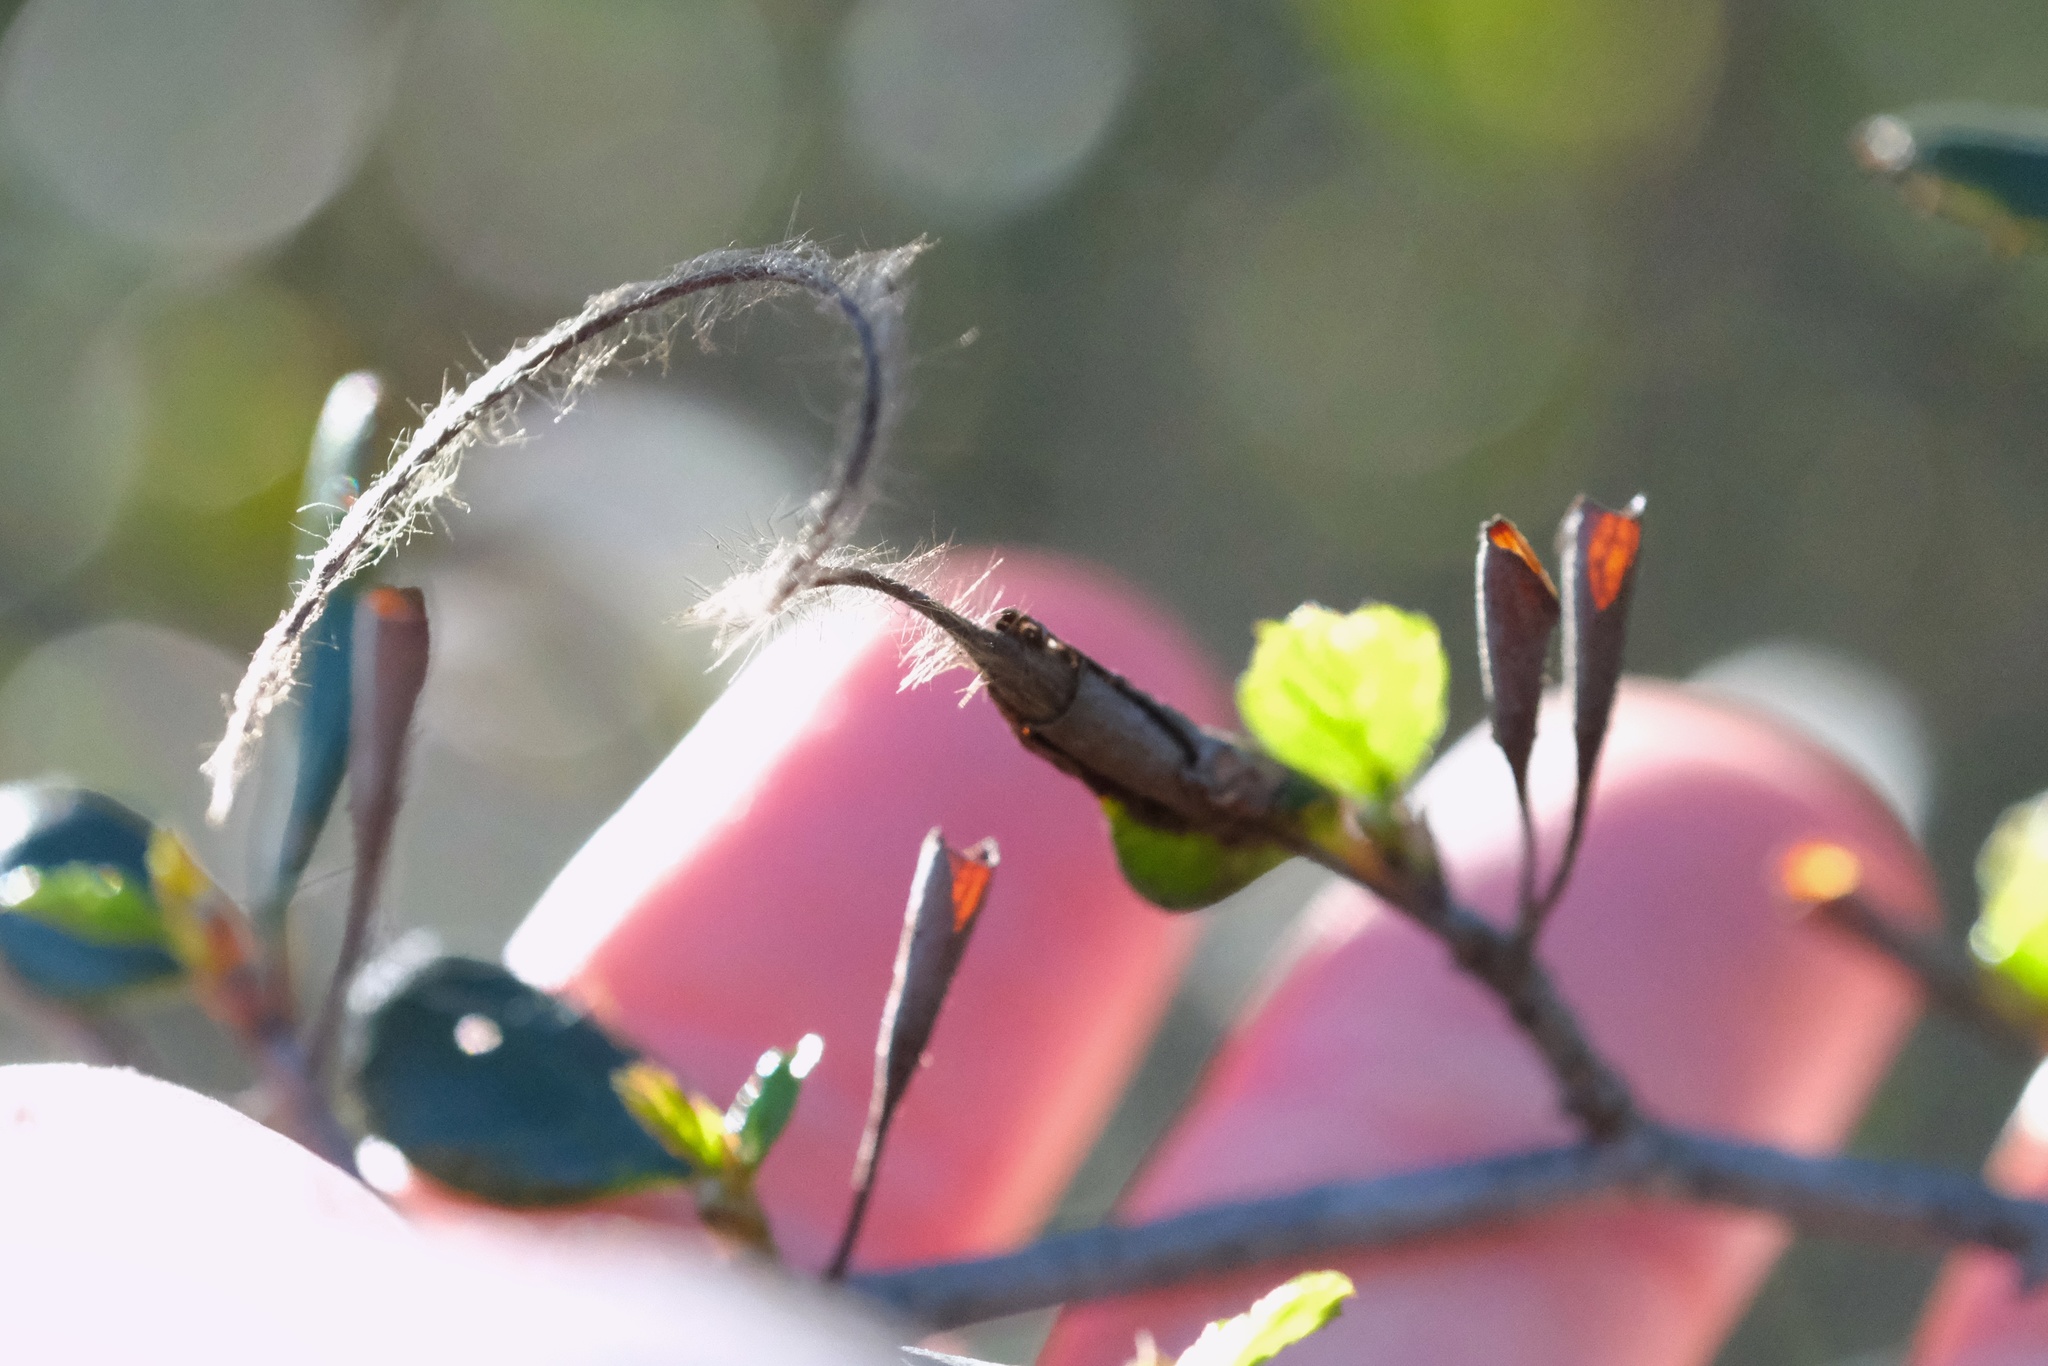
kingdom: Plantae
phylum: Tracheophyta
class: Magnoliopsida
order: Rosales
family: Rosaceae
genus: Cercocarpus
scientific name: Cercocarpus montanus
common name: Alder-leaf cercocarpus
